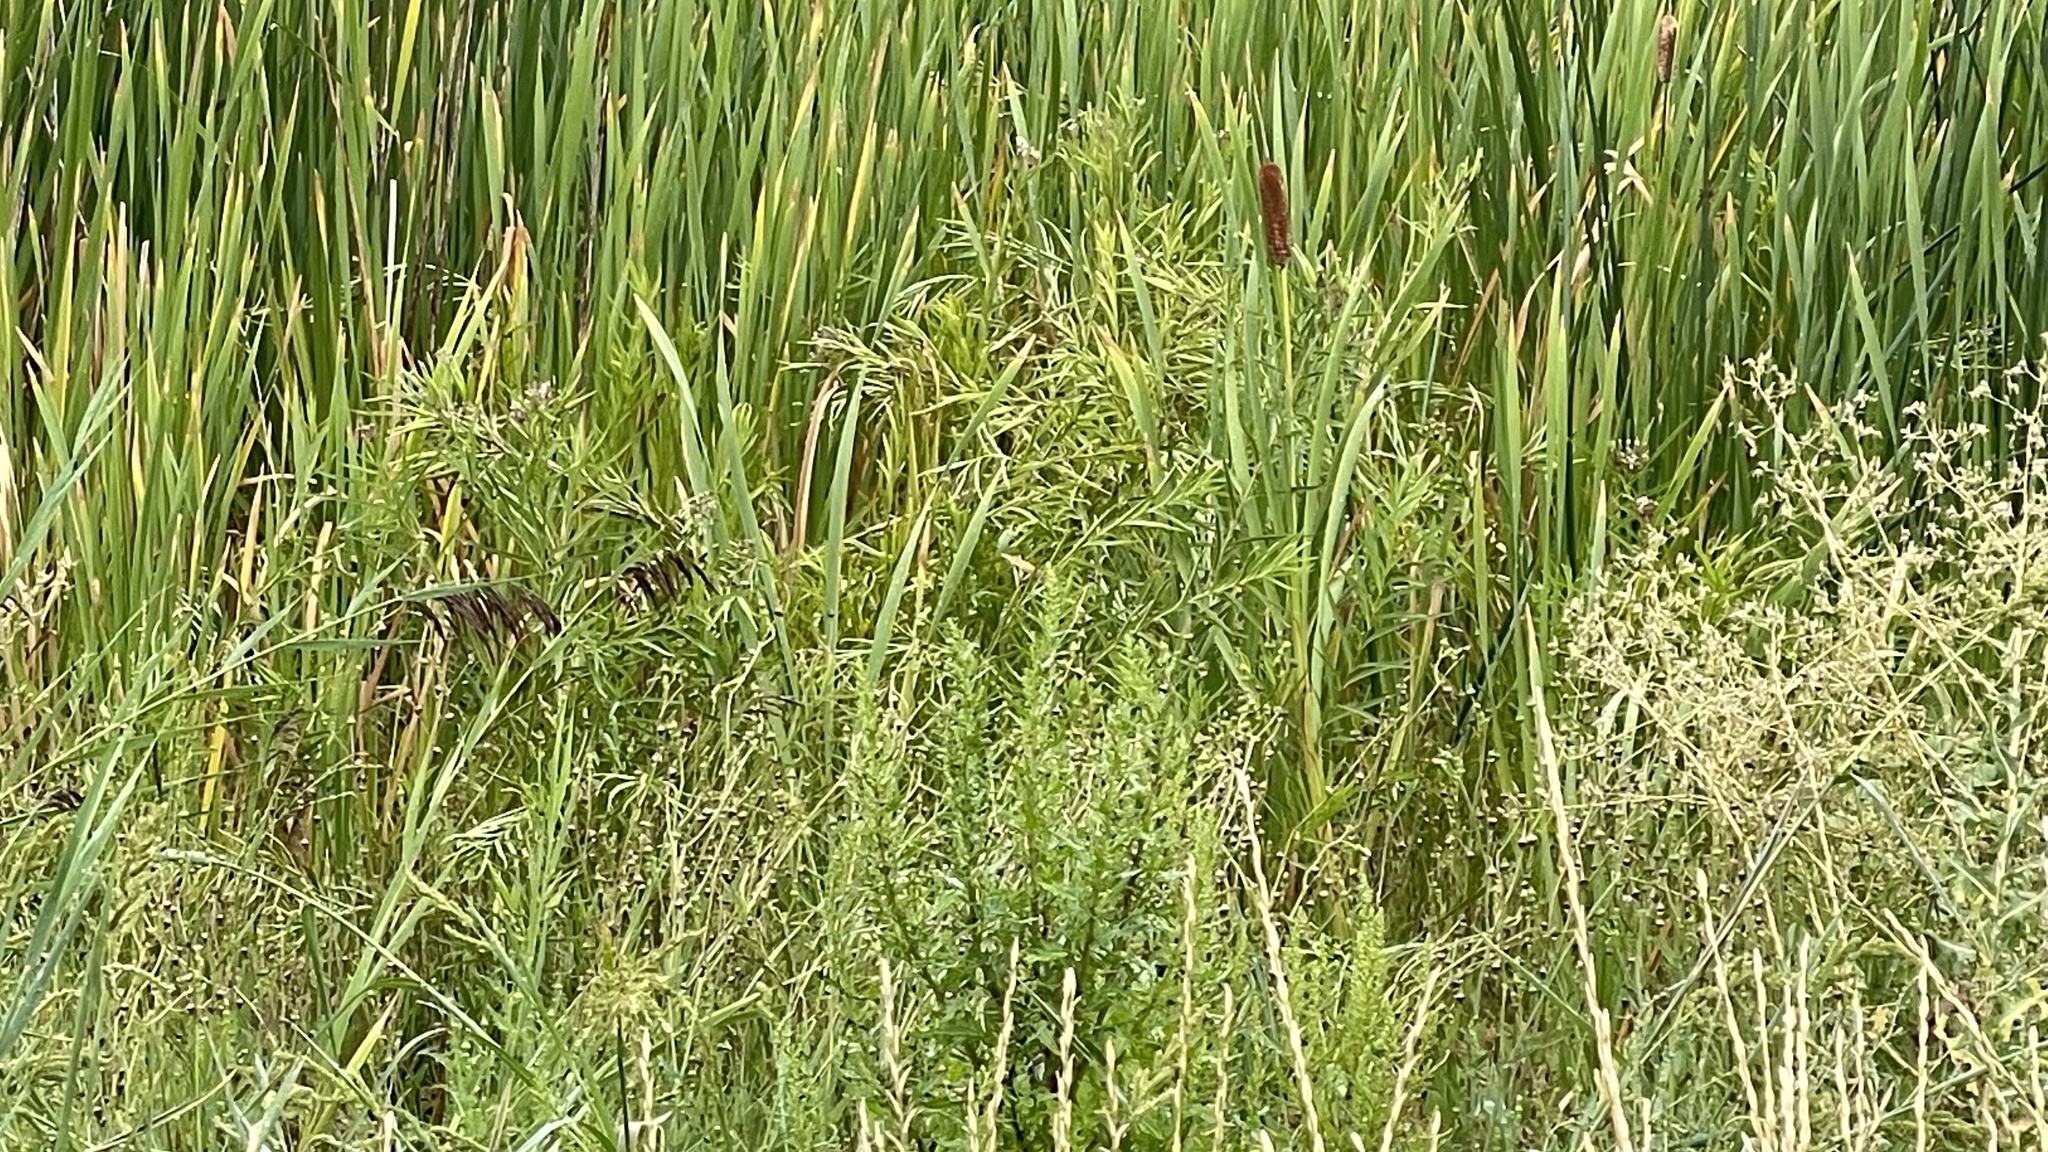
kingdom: Plantae
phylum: Tracheophyta
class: Magnoliopsida
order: Gentianales
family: Apocynaceae
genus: Asclepias
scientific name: Asclepias incarnata
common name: Swamp milkweed
